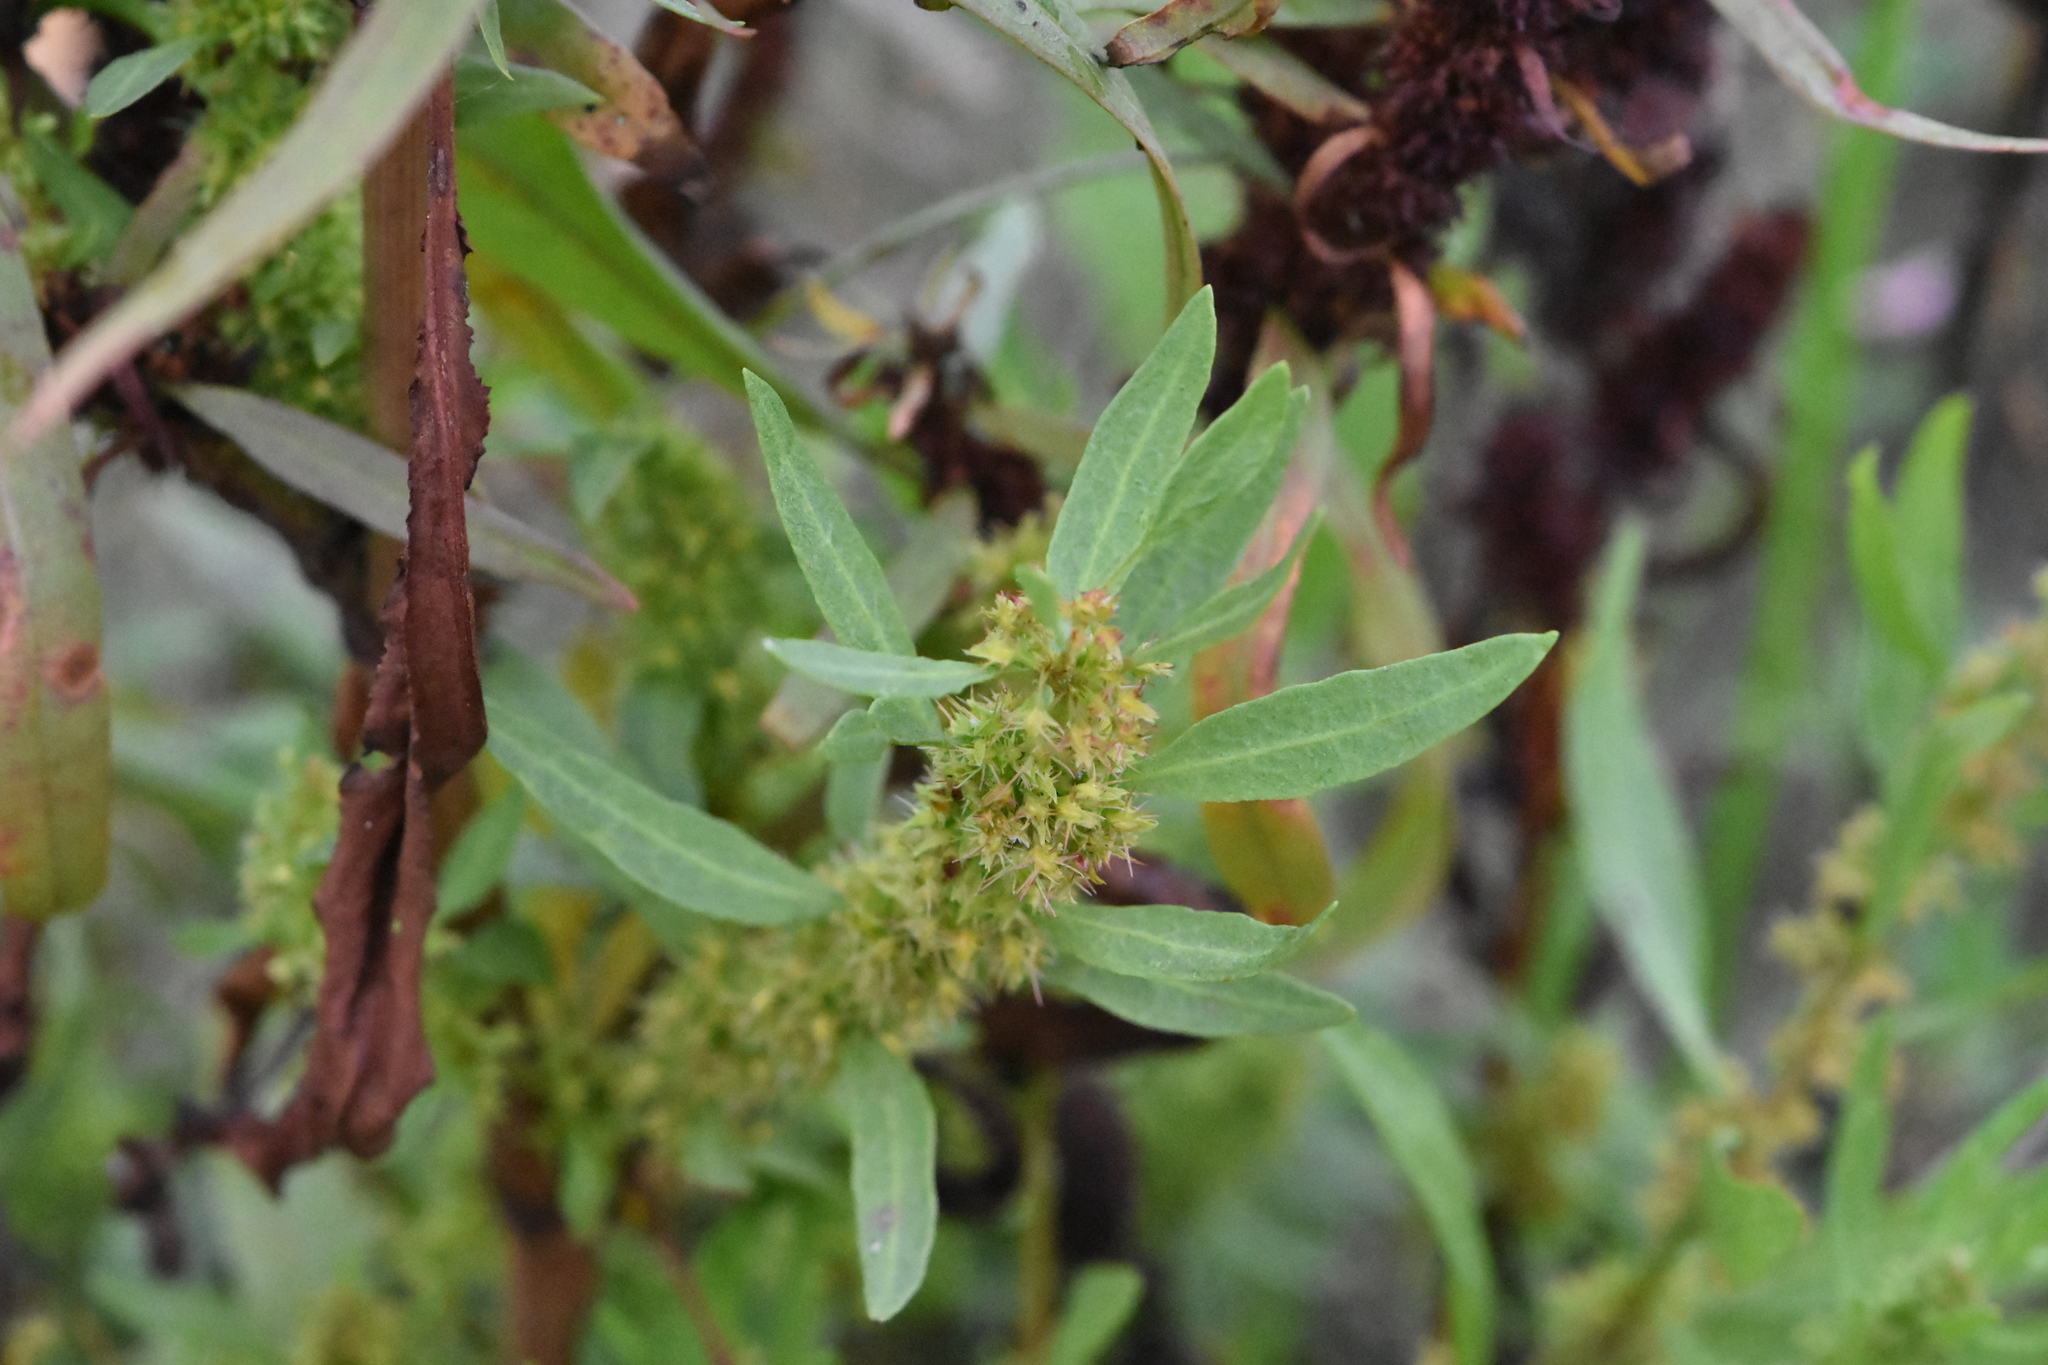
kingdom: Plantae
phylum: Tracheophyta
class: Magnoliopsida
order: Caryophyllales
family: Polygonaceae
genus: Rumex
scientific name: Rumex maritimus
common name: Golden dock
